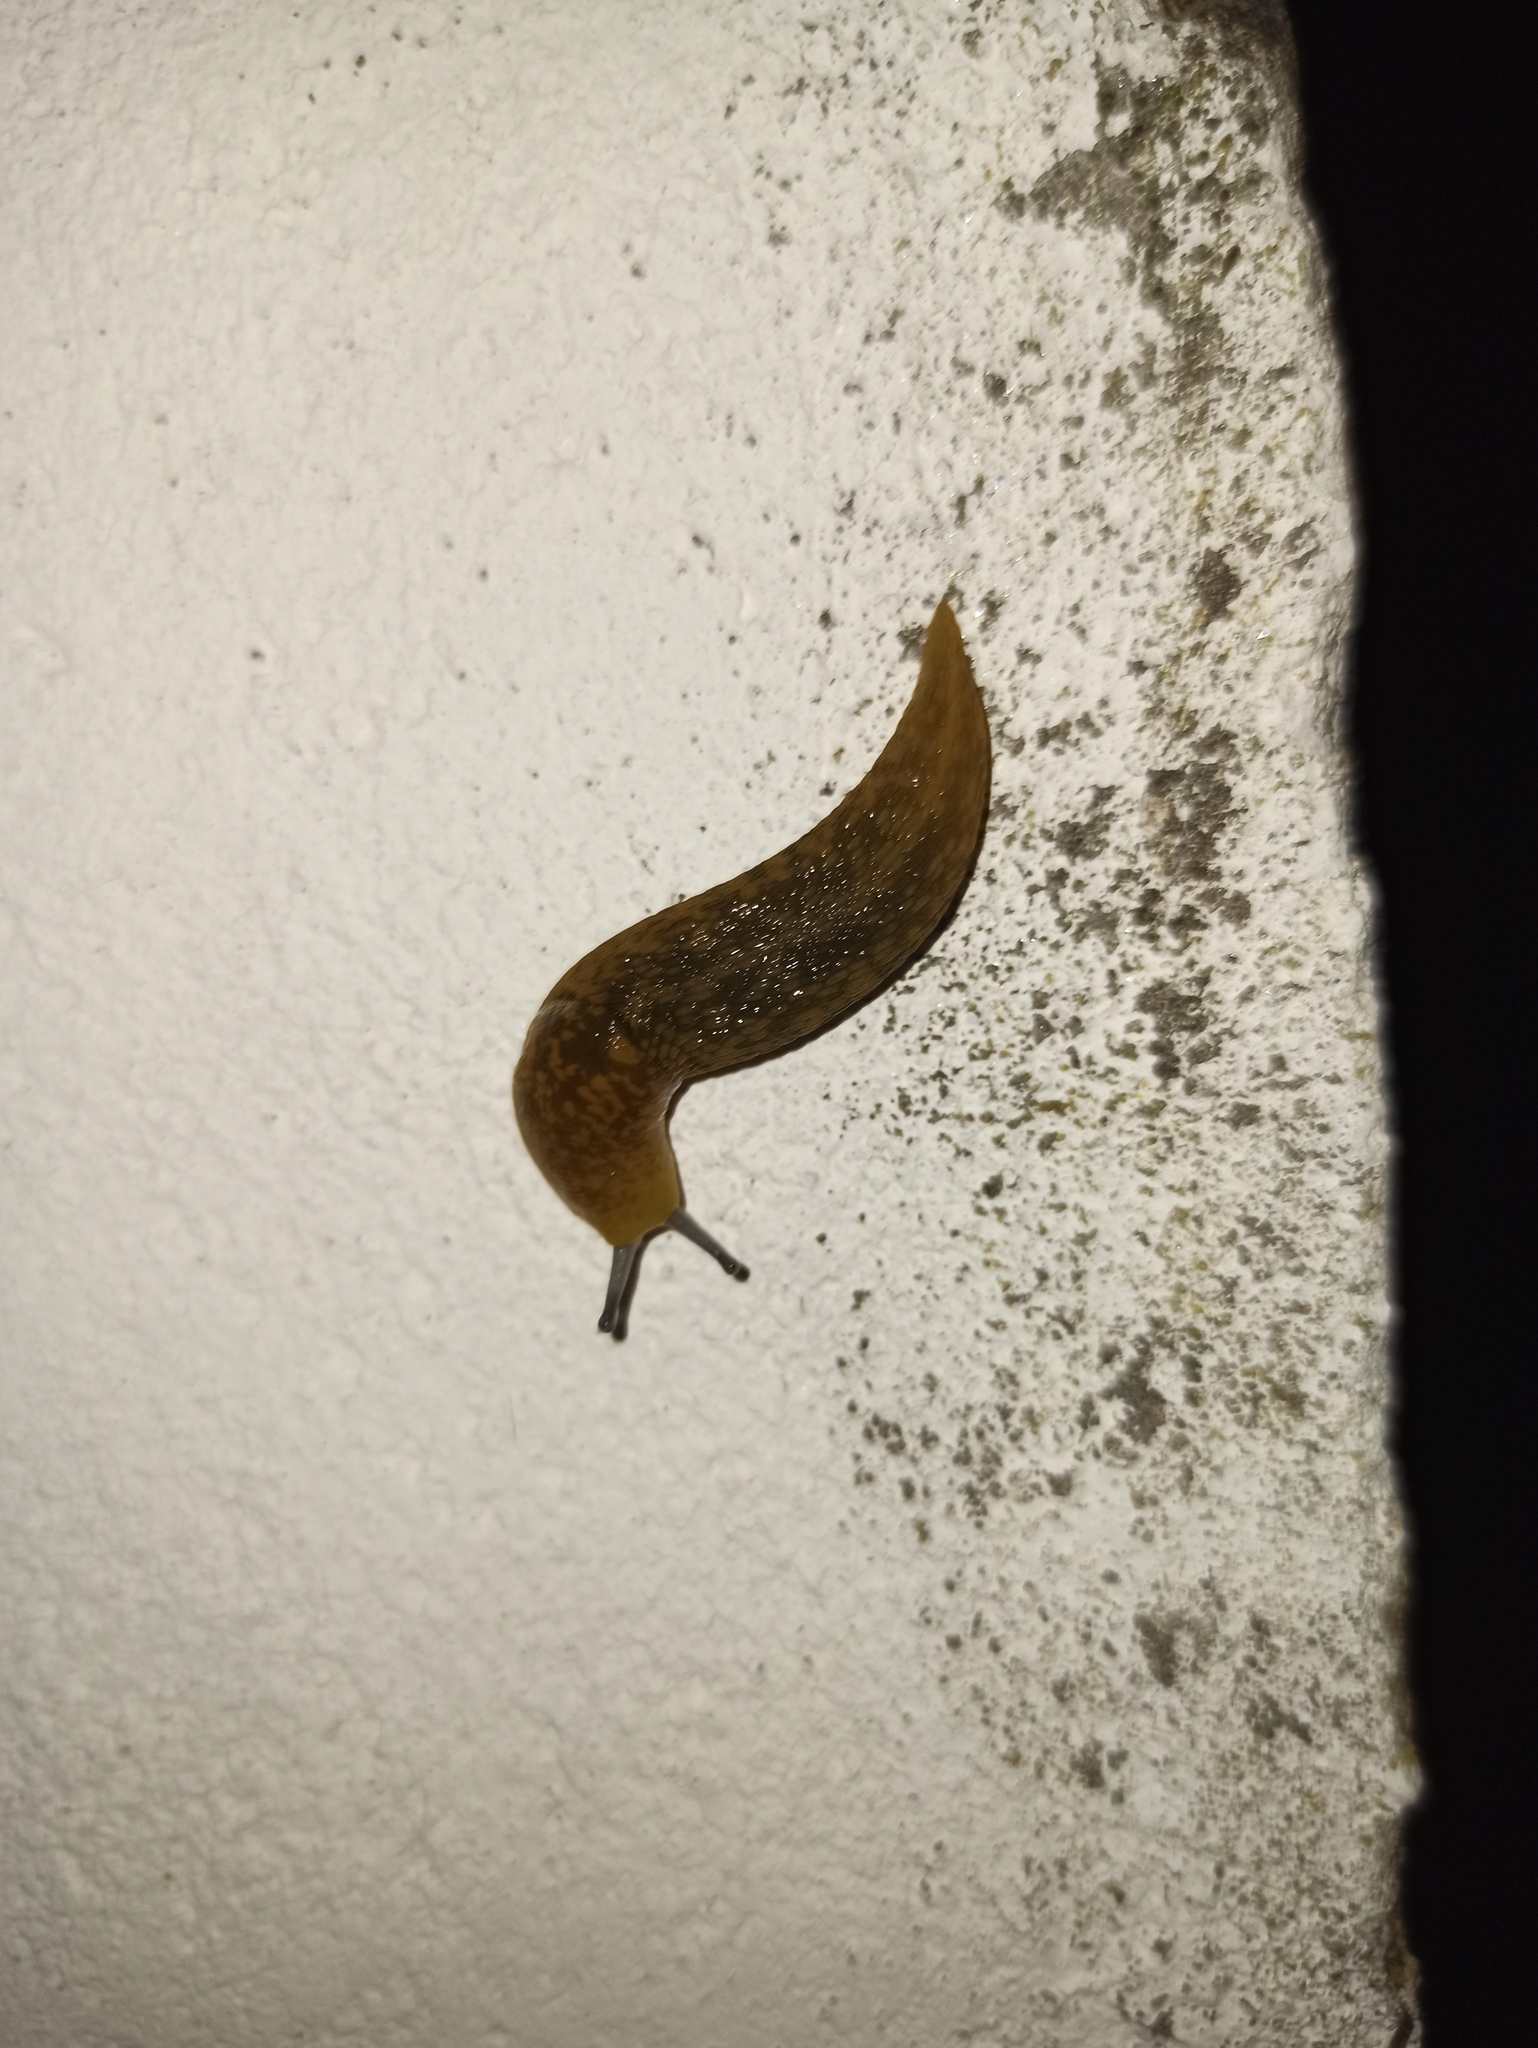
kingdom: Animalia
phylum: Mollusca
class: Gastropoda
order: Stylommatophora
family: Limacidae
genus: Limacus
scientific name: Limacus flavus
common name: Yellow gardenslug
